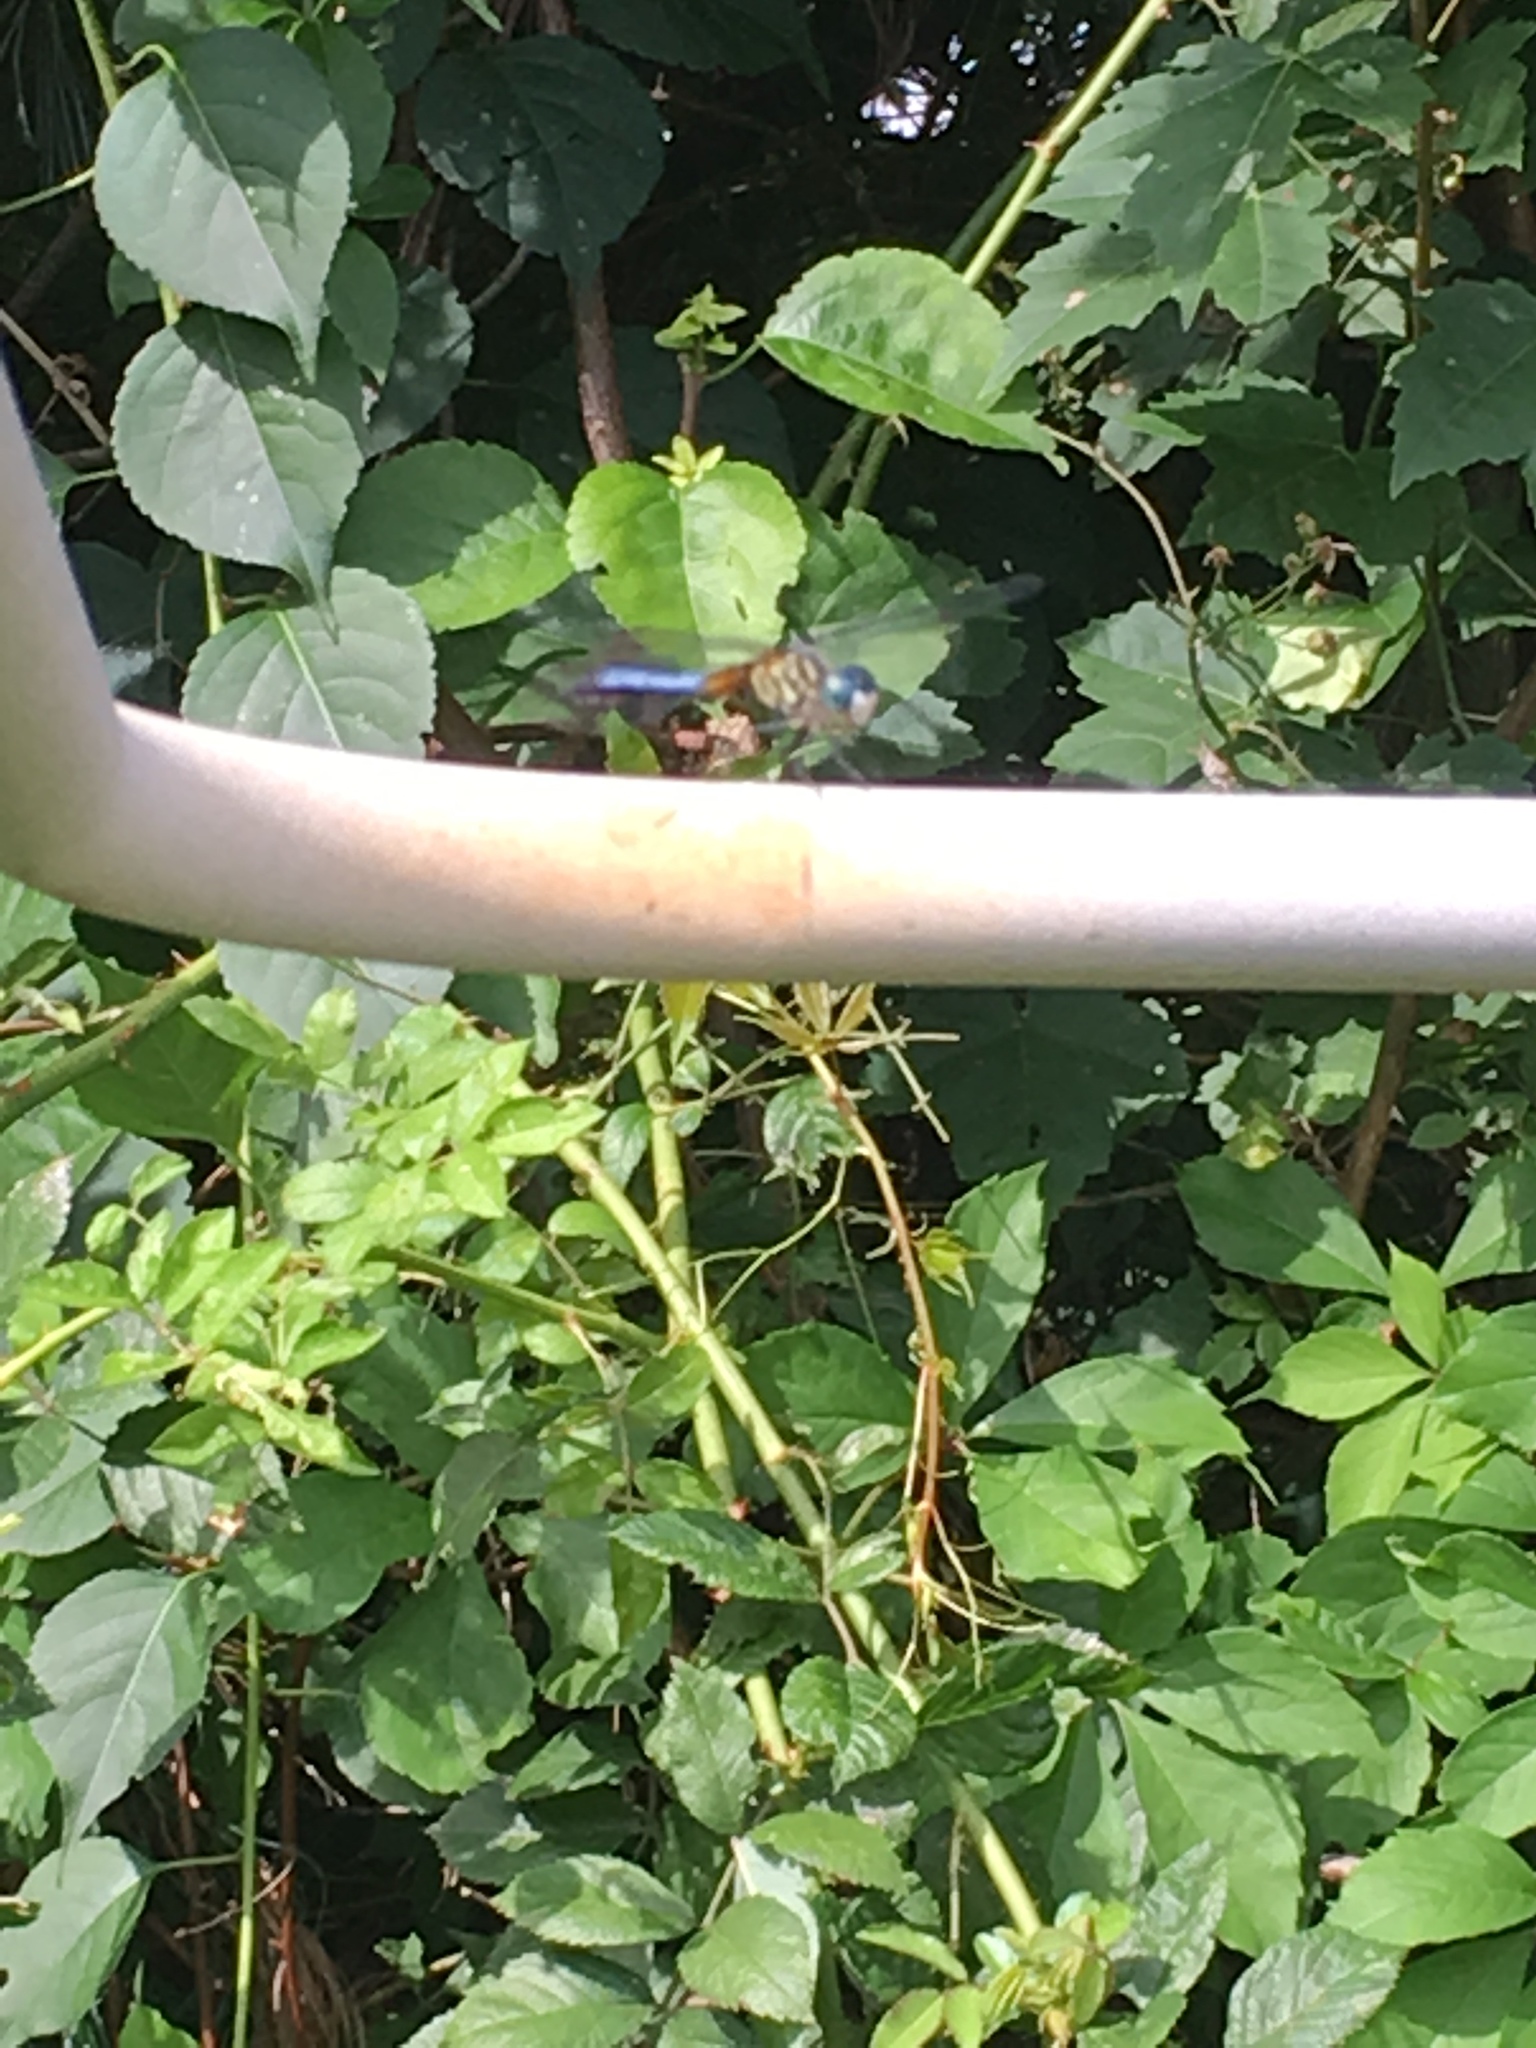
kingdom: Animalia
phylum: Arthropoda
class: Insecta
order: Odonata
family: Libellulidae
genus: Pachydiplax
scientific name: Pachydiplax longipennis
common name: Blue dasher
